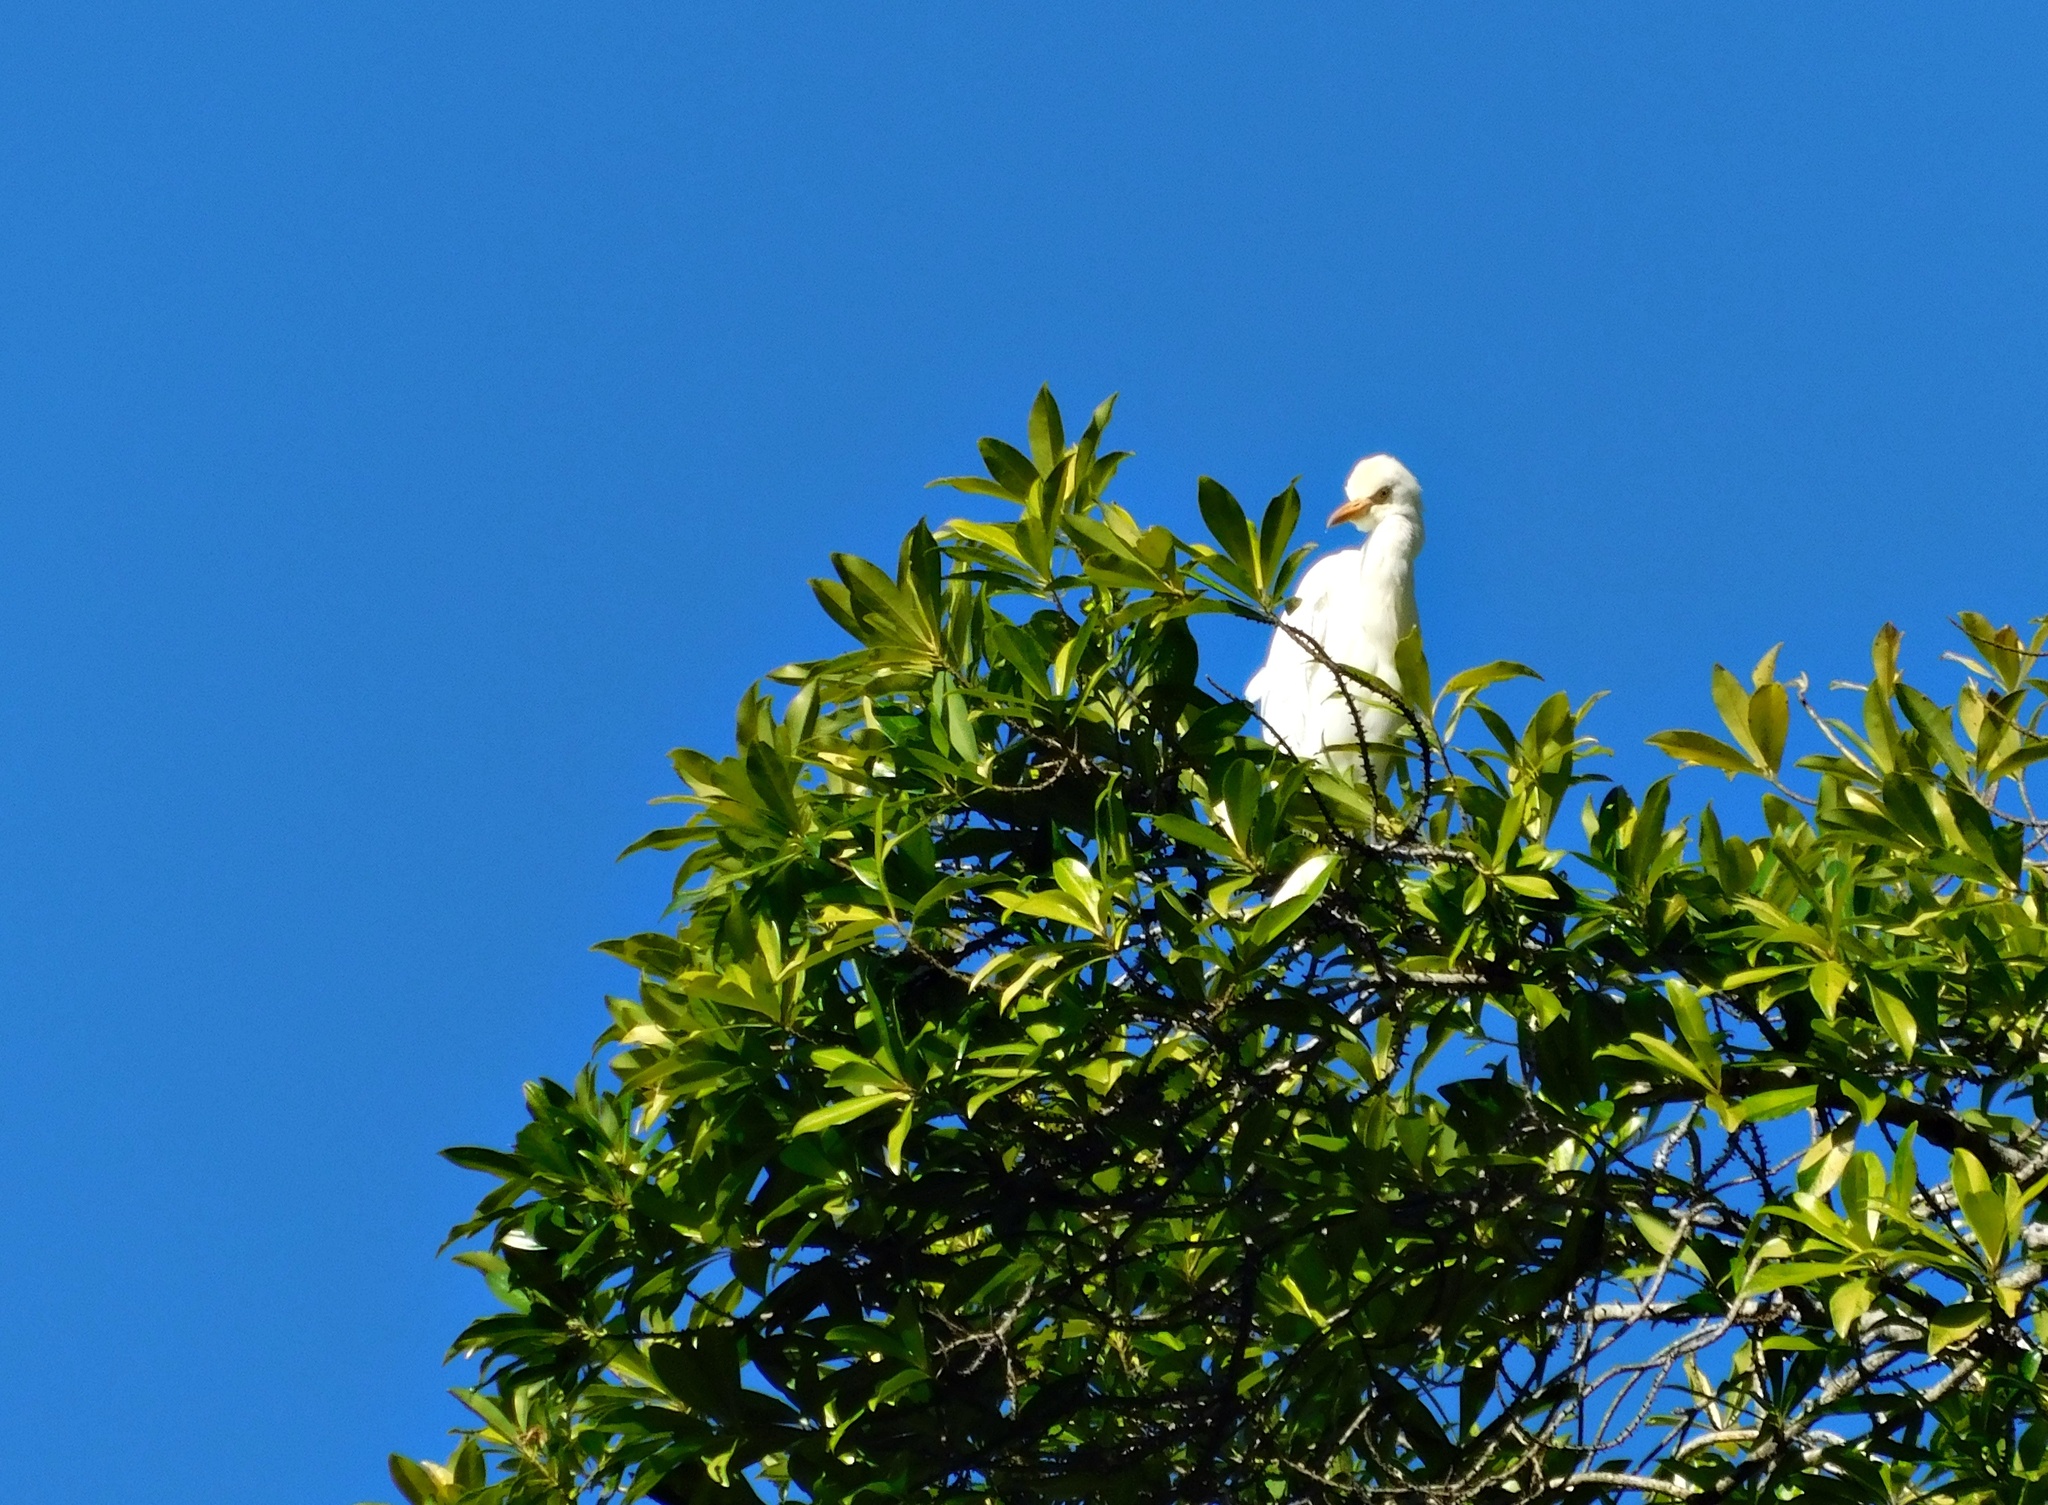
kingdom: Animalia
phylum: Chordata
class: Aves
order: Pelecaniformes
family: Ardeidae
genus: Bubulcus
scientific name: Bubulcus ibis
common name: Cattle egret
